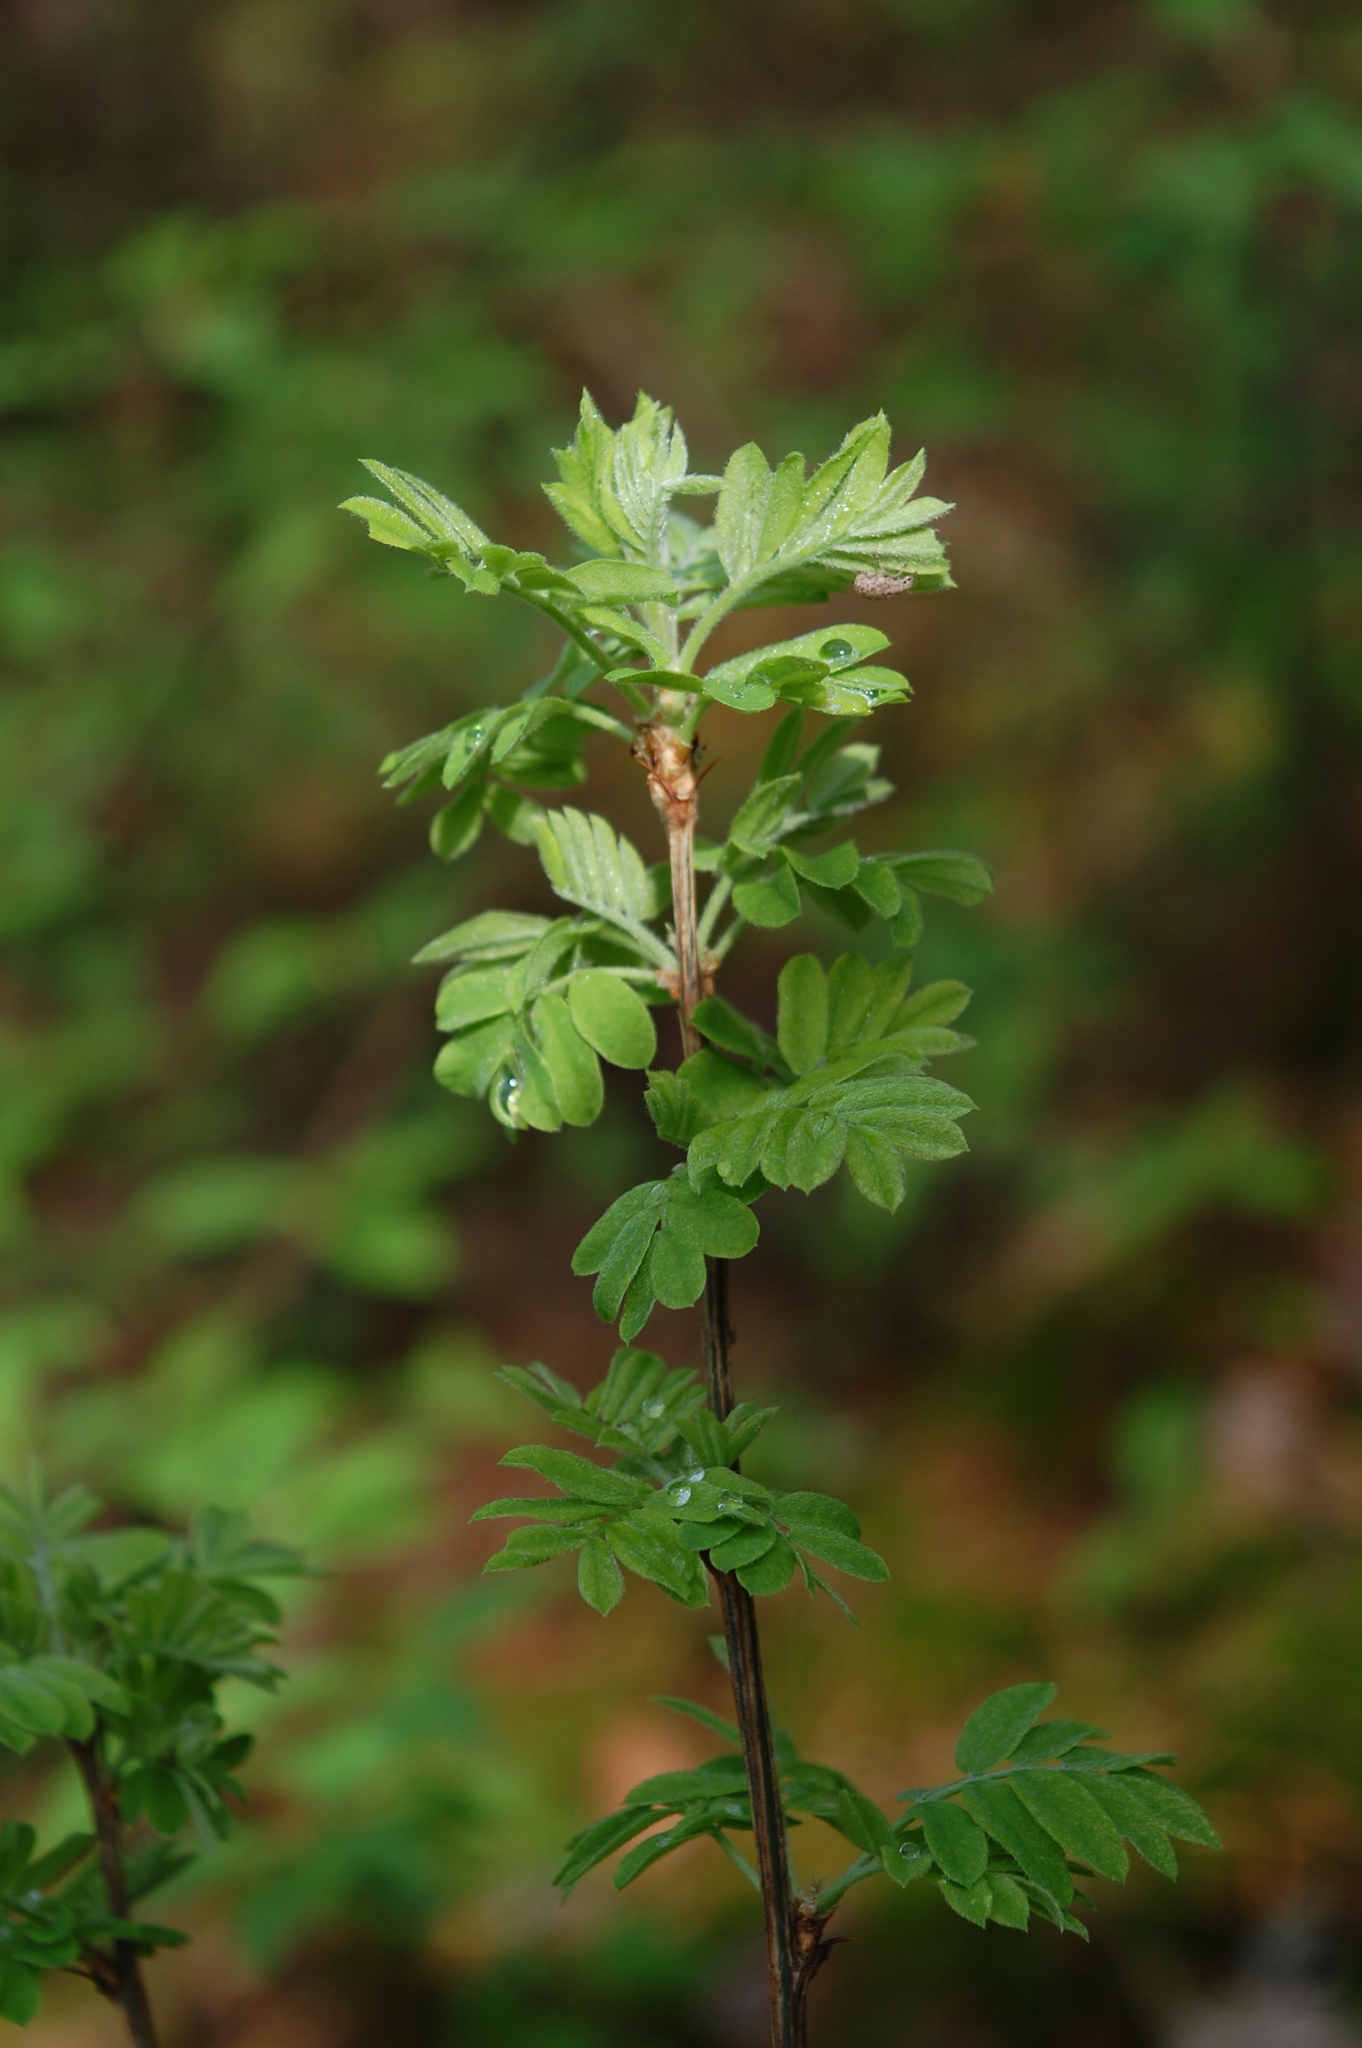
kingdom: Plantae
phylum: Tracheophyta
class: Magnoliopsida
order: Fabales
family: Fabaceae
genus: Caragana
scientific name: Caragana arborescens
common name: Siberian peashrub
